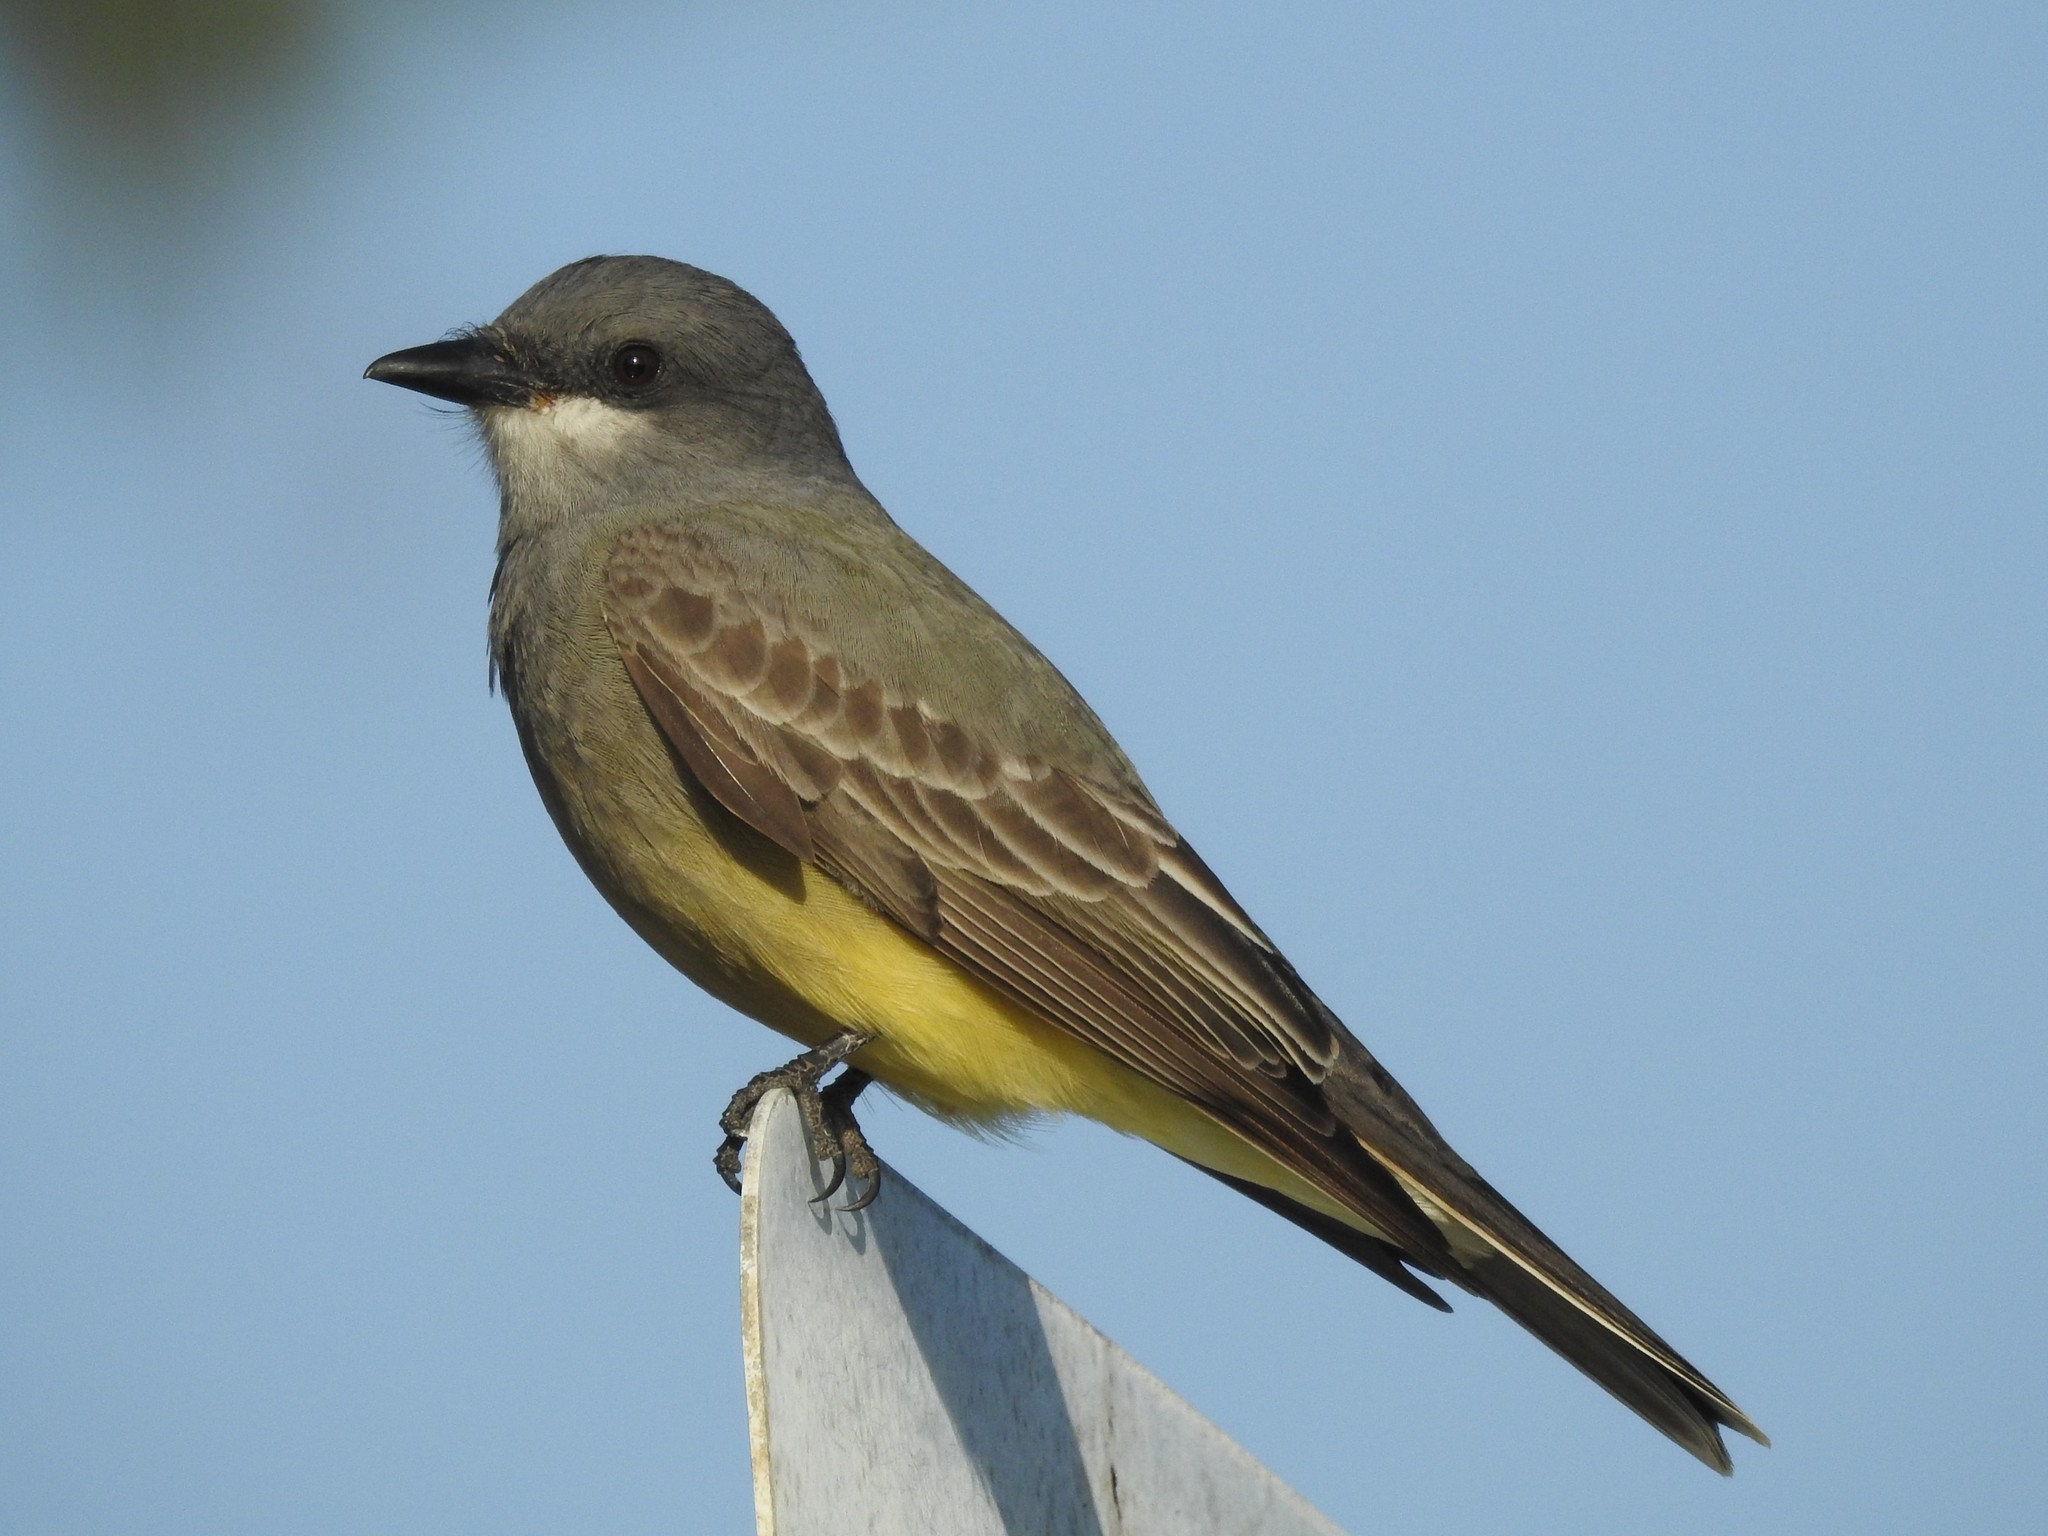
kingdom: Animalia
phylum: Chordata
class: Aves
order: Passeriformes
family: Tyrannidae
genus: Tyrannus
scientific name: Tyrannus vociferans
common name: Cassin's kingbird
